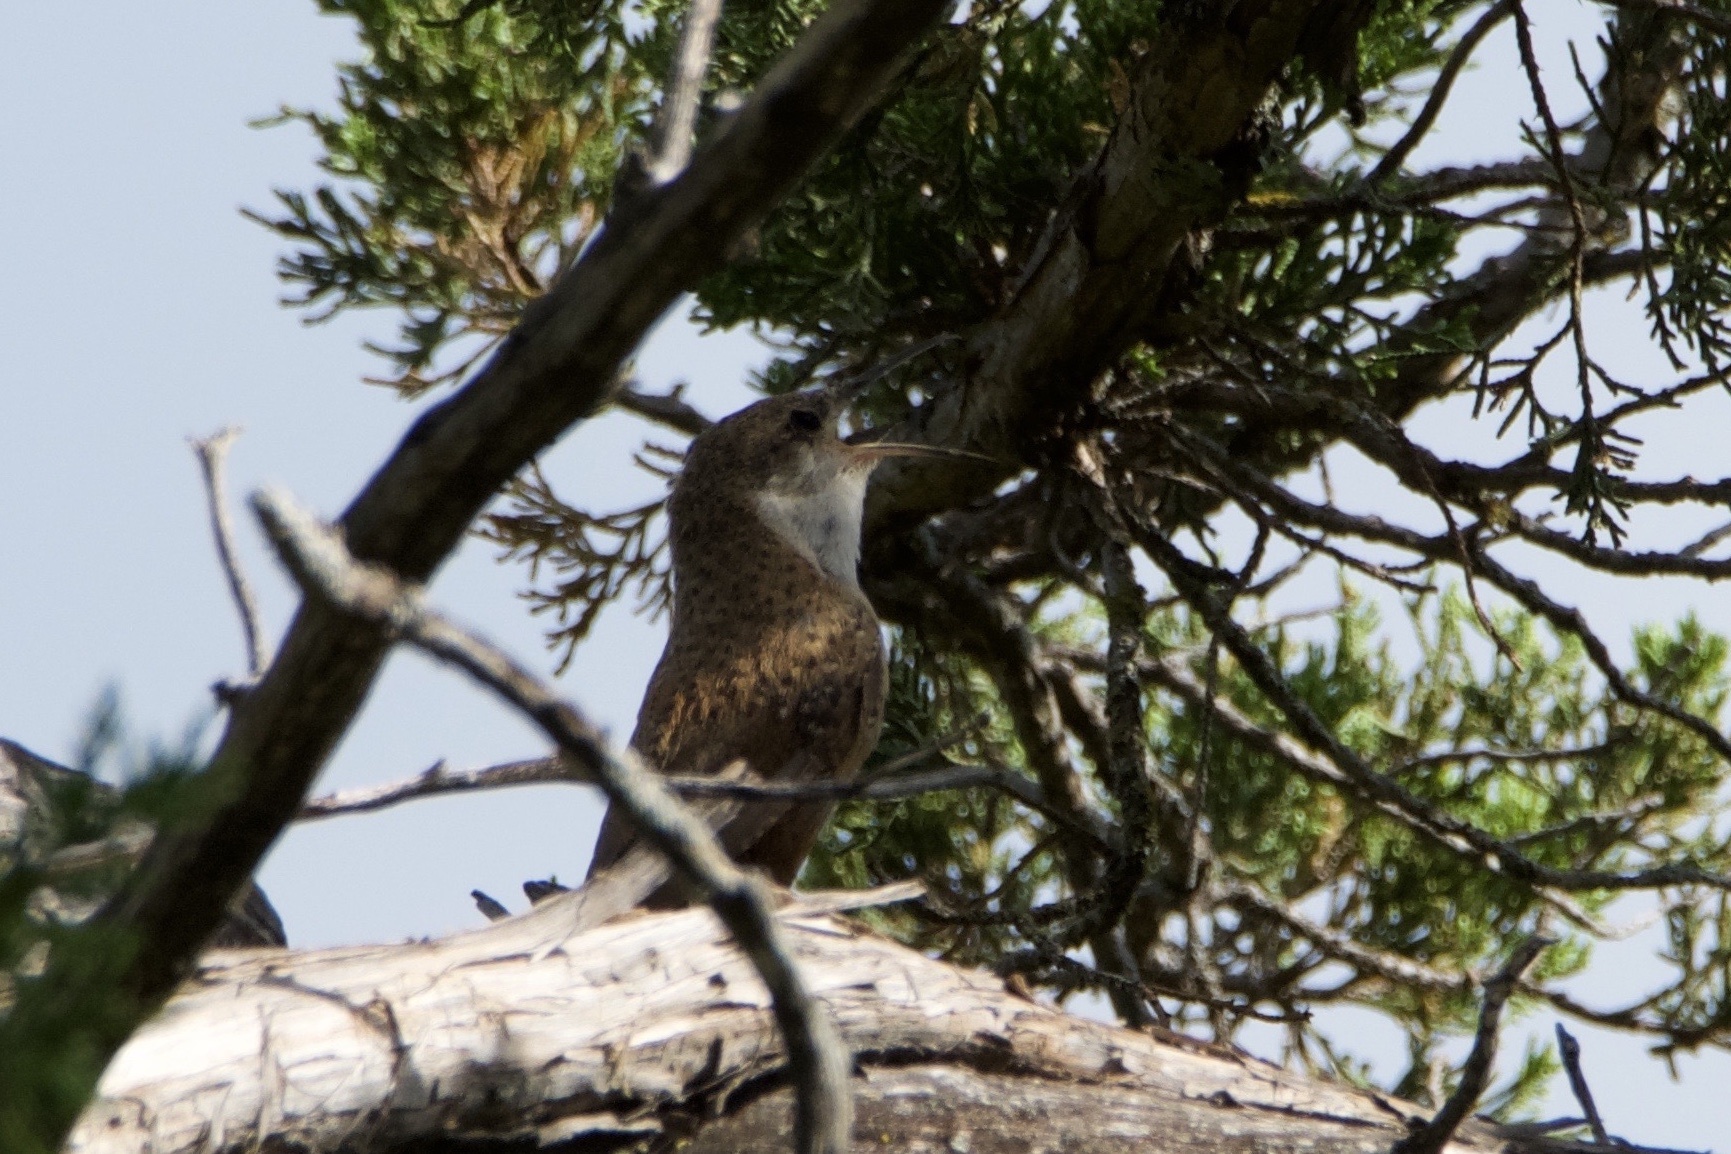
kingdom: Animalia
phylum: Chordata
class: Aves
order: Passeriformes
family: Troglodytidae
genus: Catherpes
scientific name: Catherpes mexicanus
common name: Canyon wren
